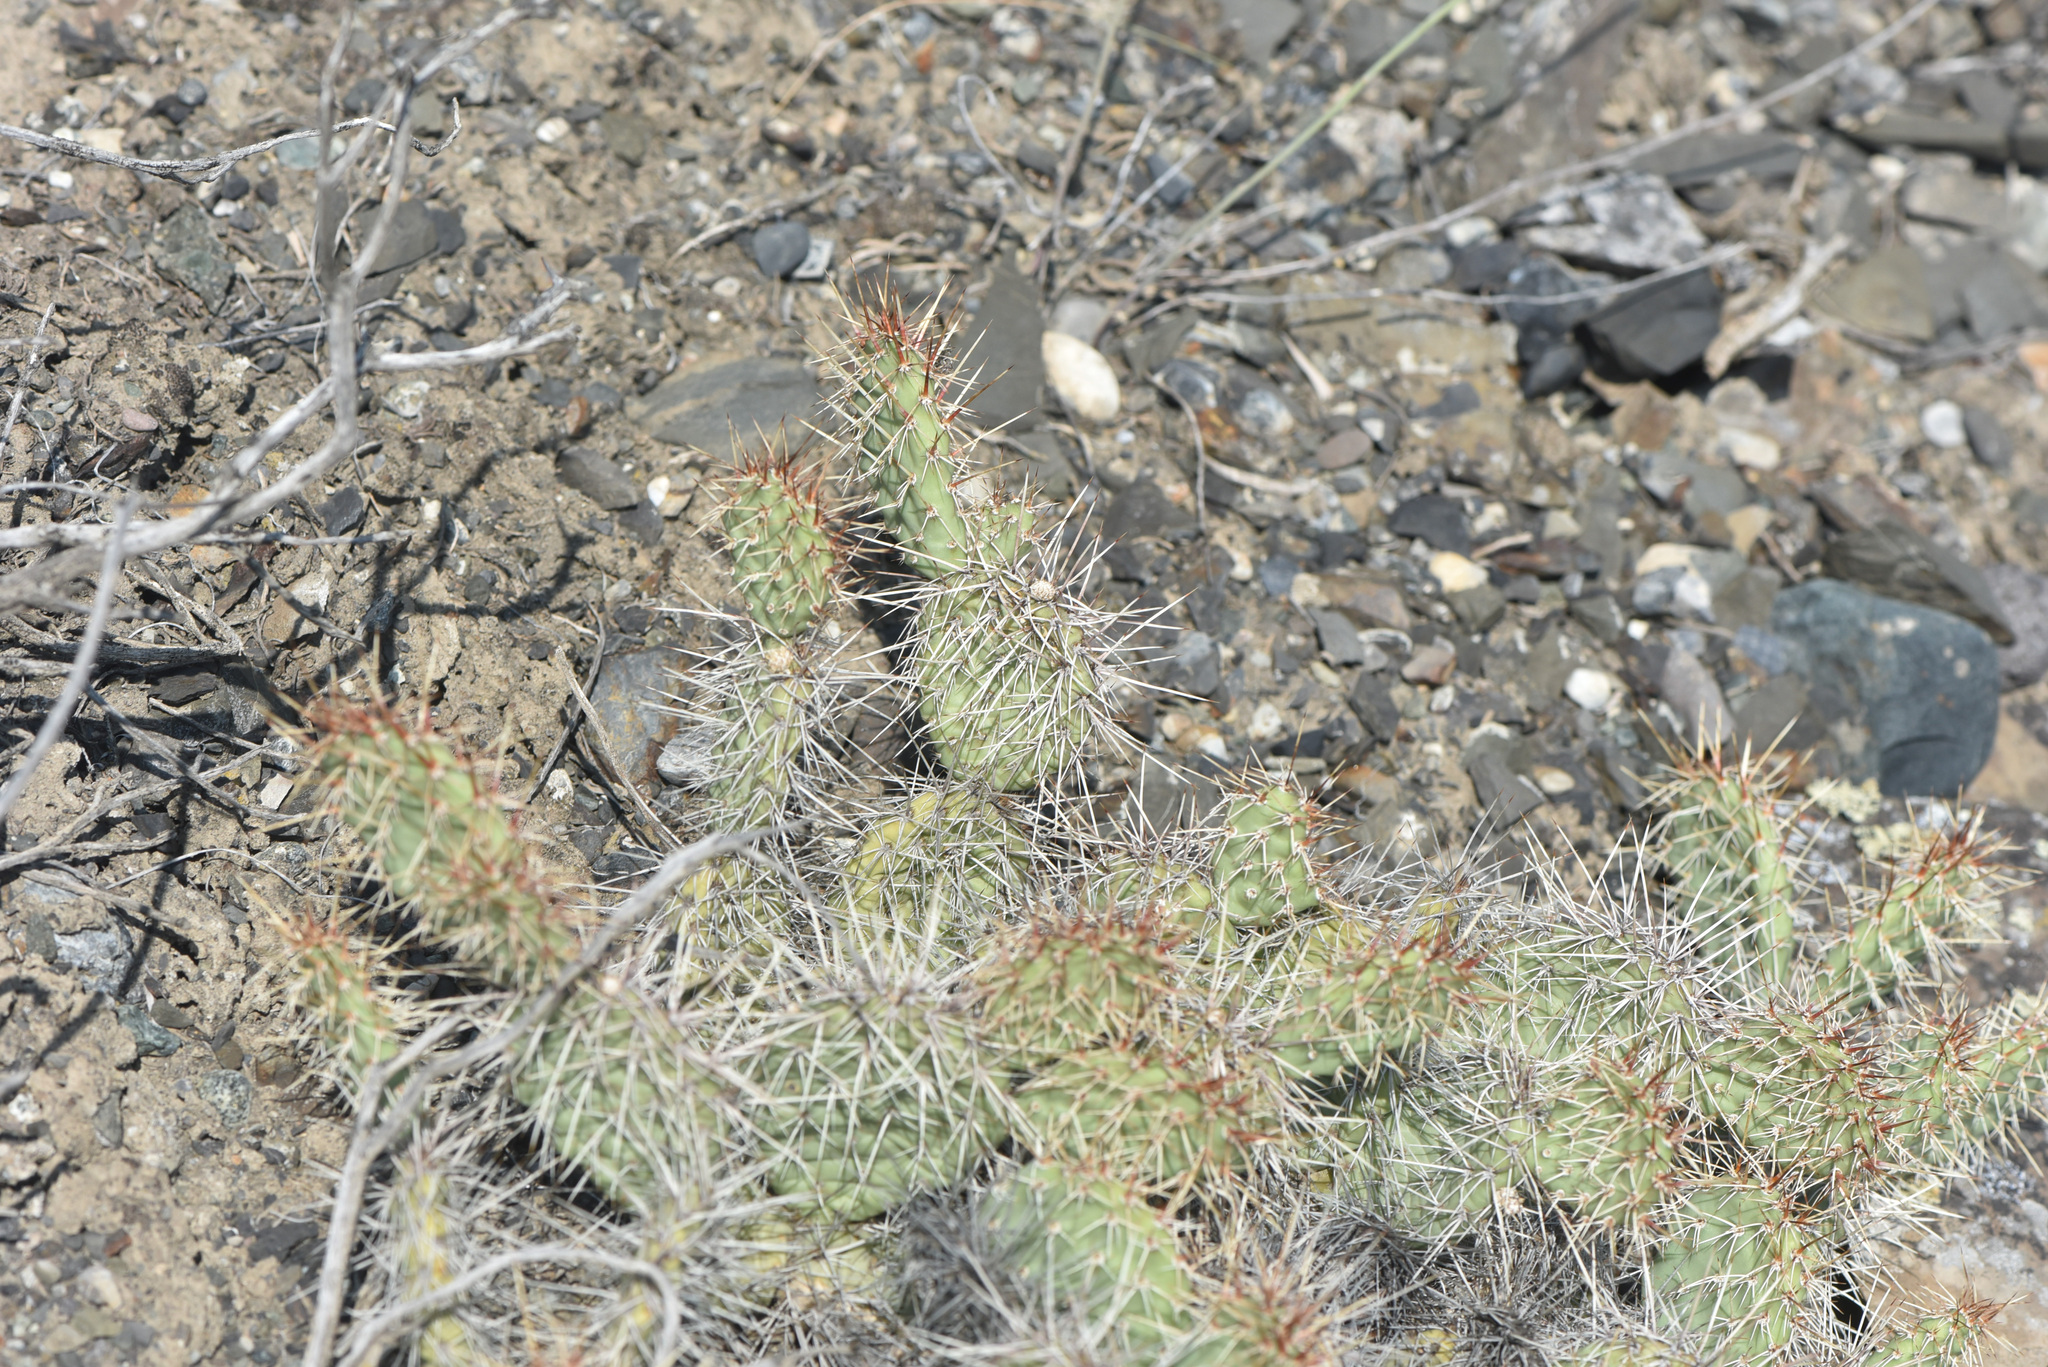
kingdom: Plantae
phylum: Tracheophyta
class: Magnoliopsida
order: Caryophyllales
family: Cactaceae
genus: Opuntia
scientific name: Opuntia columbiana
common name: Columbia prickly-pear
